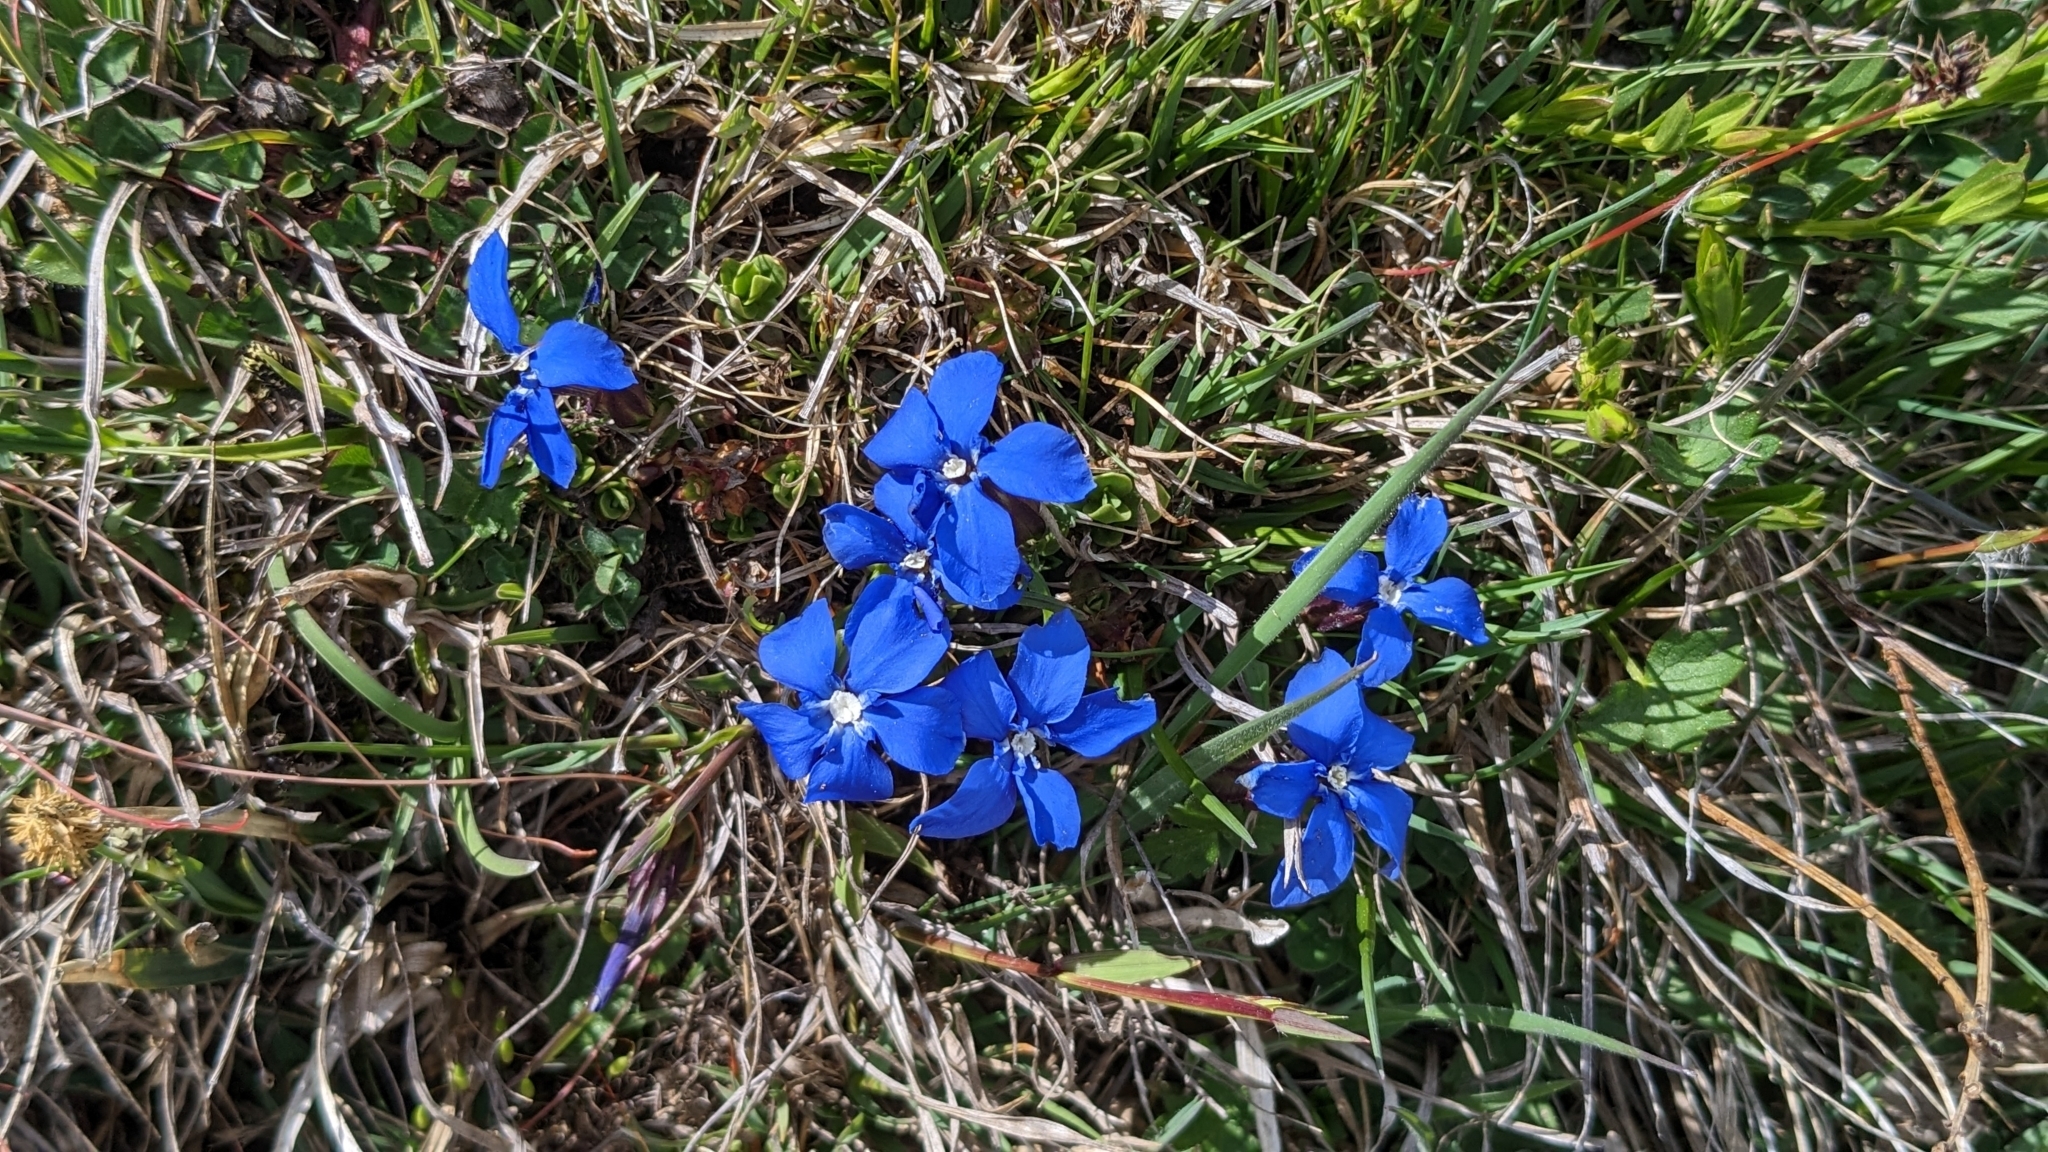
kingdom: Plantae
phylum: Tracheophyta
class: Magnoliopsida
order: Gentianales
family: Gentianaceae
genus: Gentiana
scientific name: Gentiana verna
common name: Spring gentian
